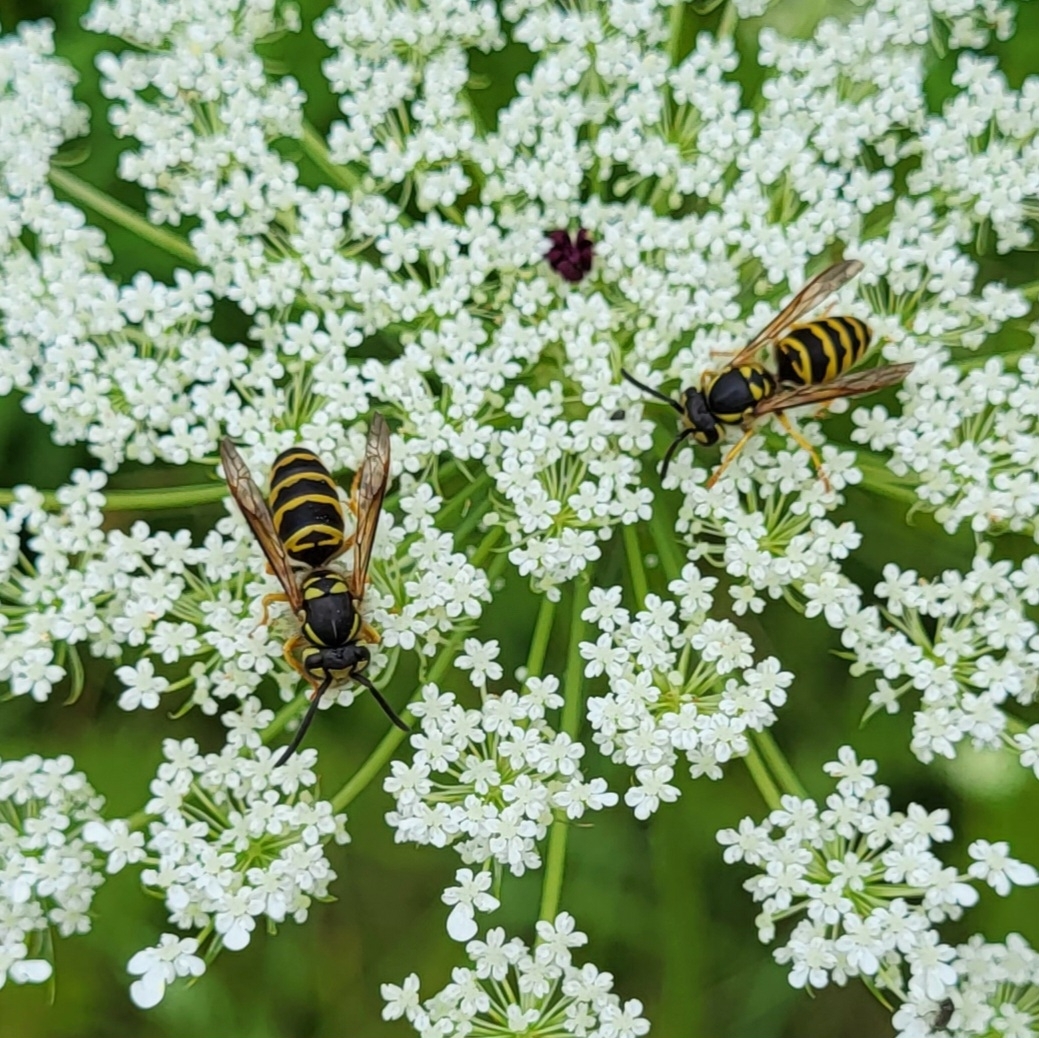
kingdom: Animalia
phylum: Arthropoda
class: Insecta
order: Hymenoptera
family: Vespidae
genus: Vespula
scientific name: Vespula maculifrons
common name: Eastern yellowjacket
